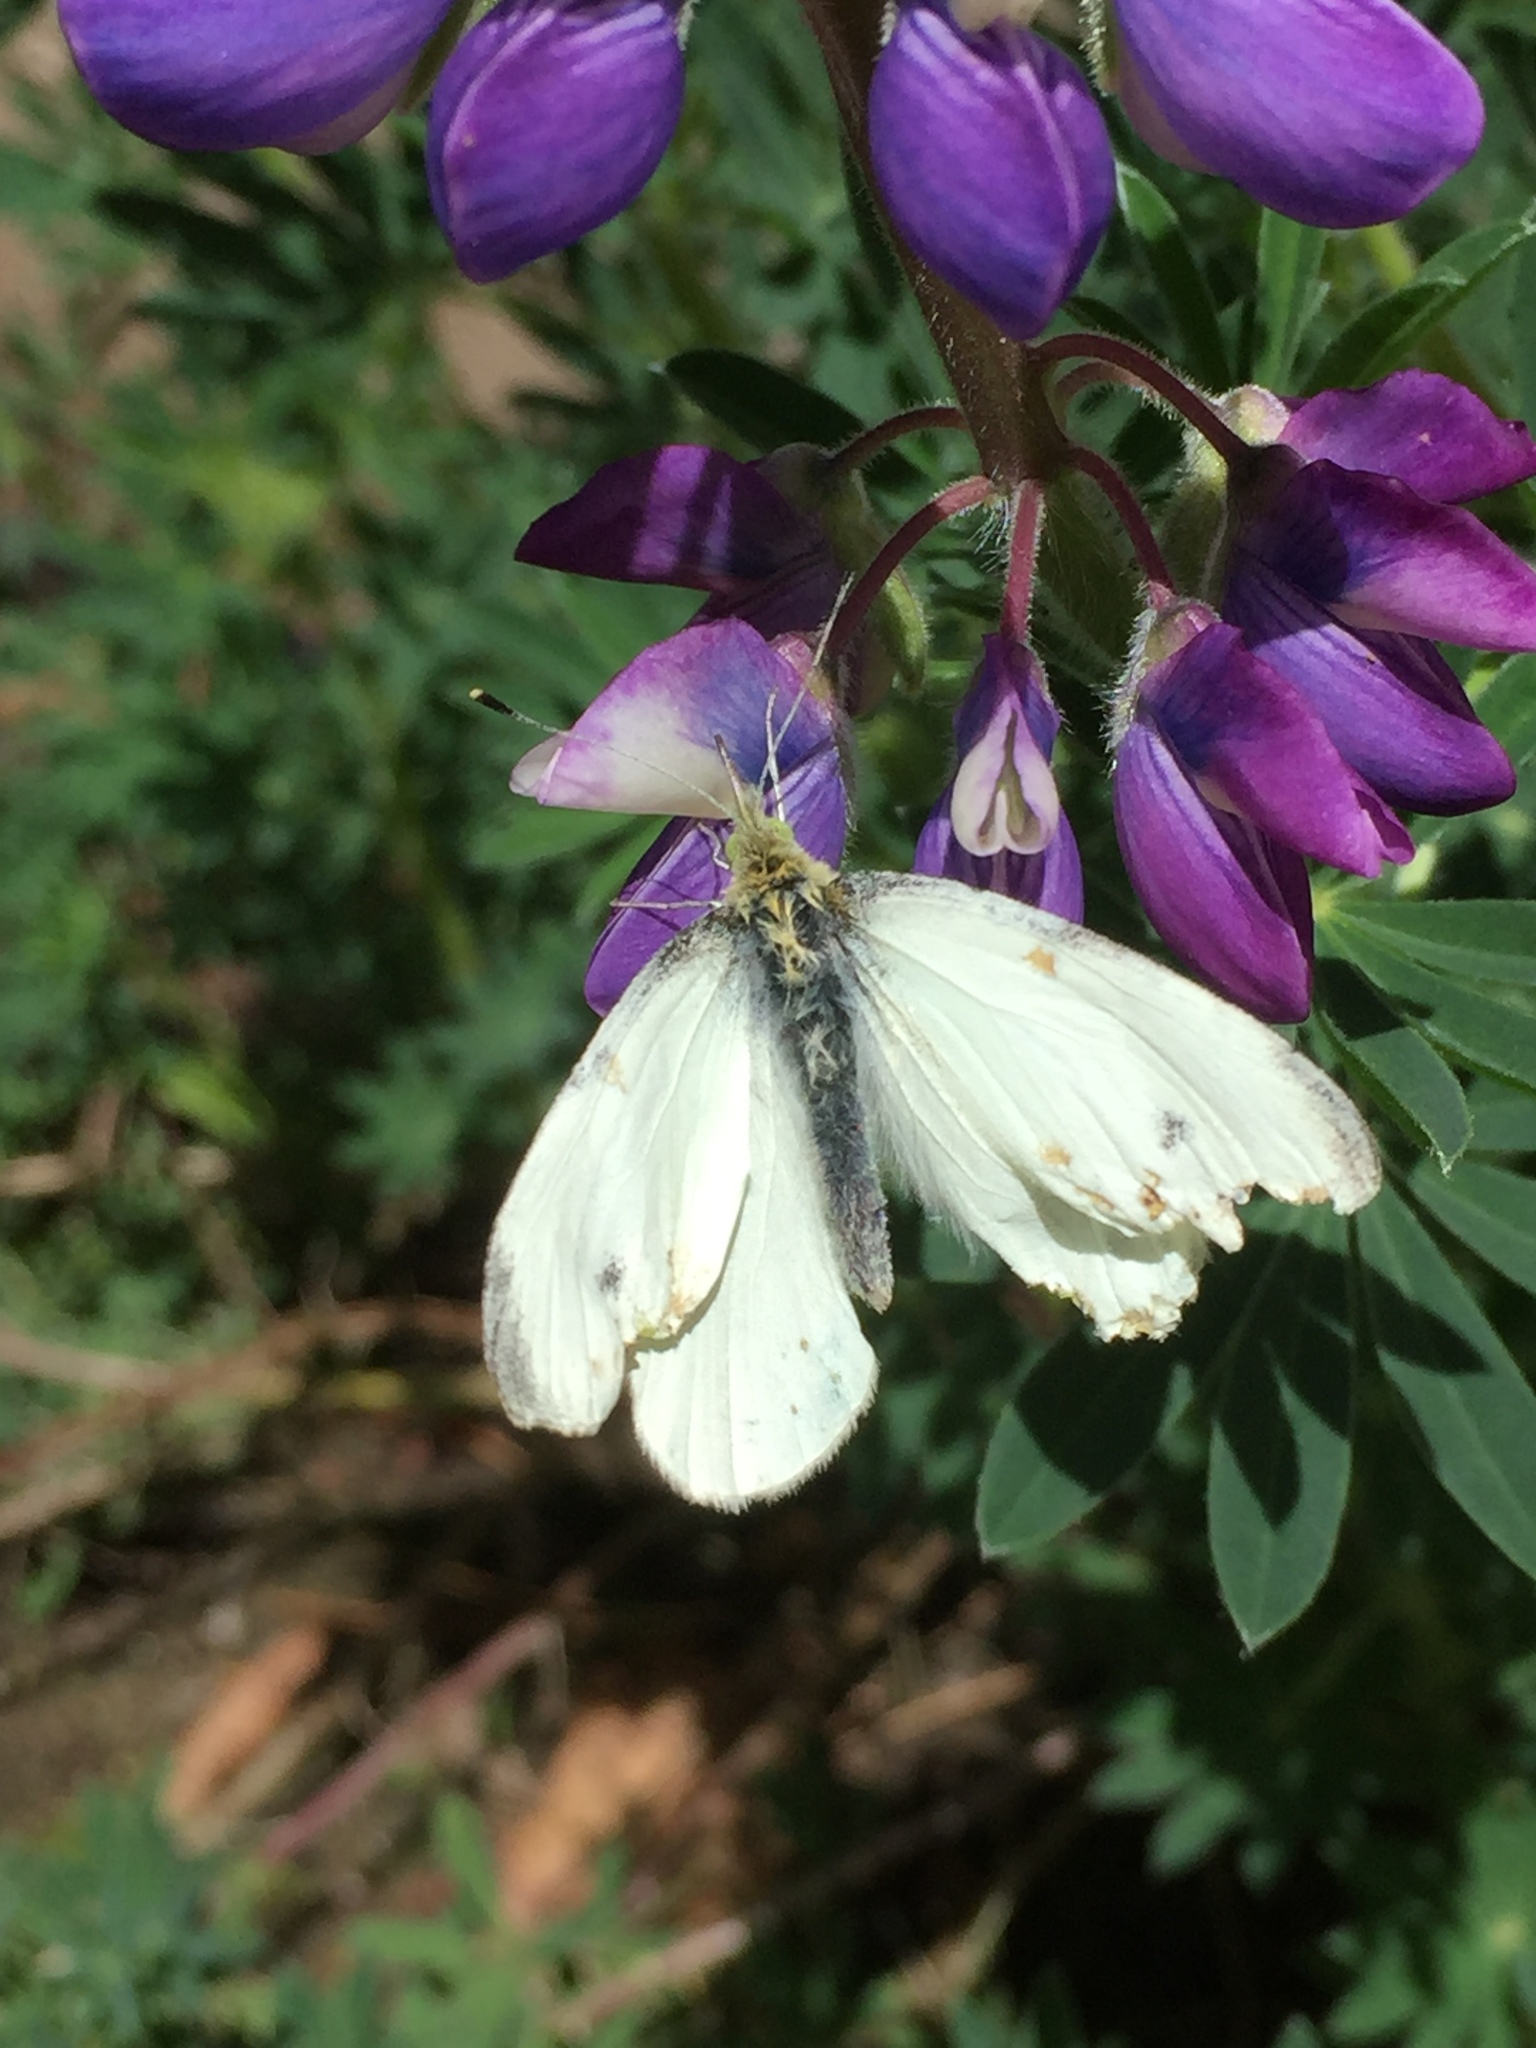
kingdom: Animalia
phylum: Arthropoda
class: Insecta
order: Lepidoptera
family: Pieridae
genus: Pieris
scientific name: Pieris rapae
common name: Small white
